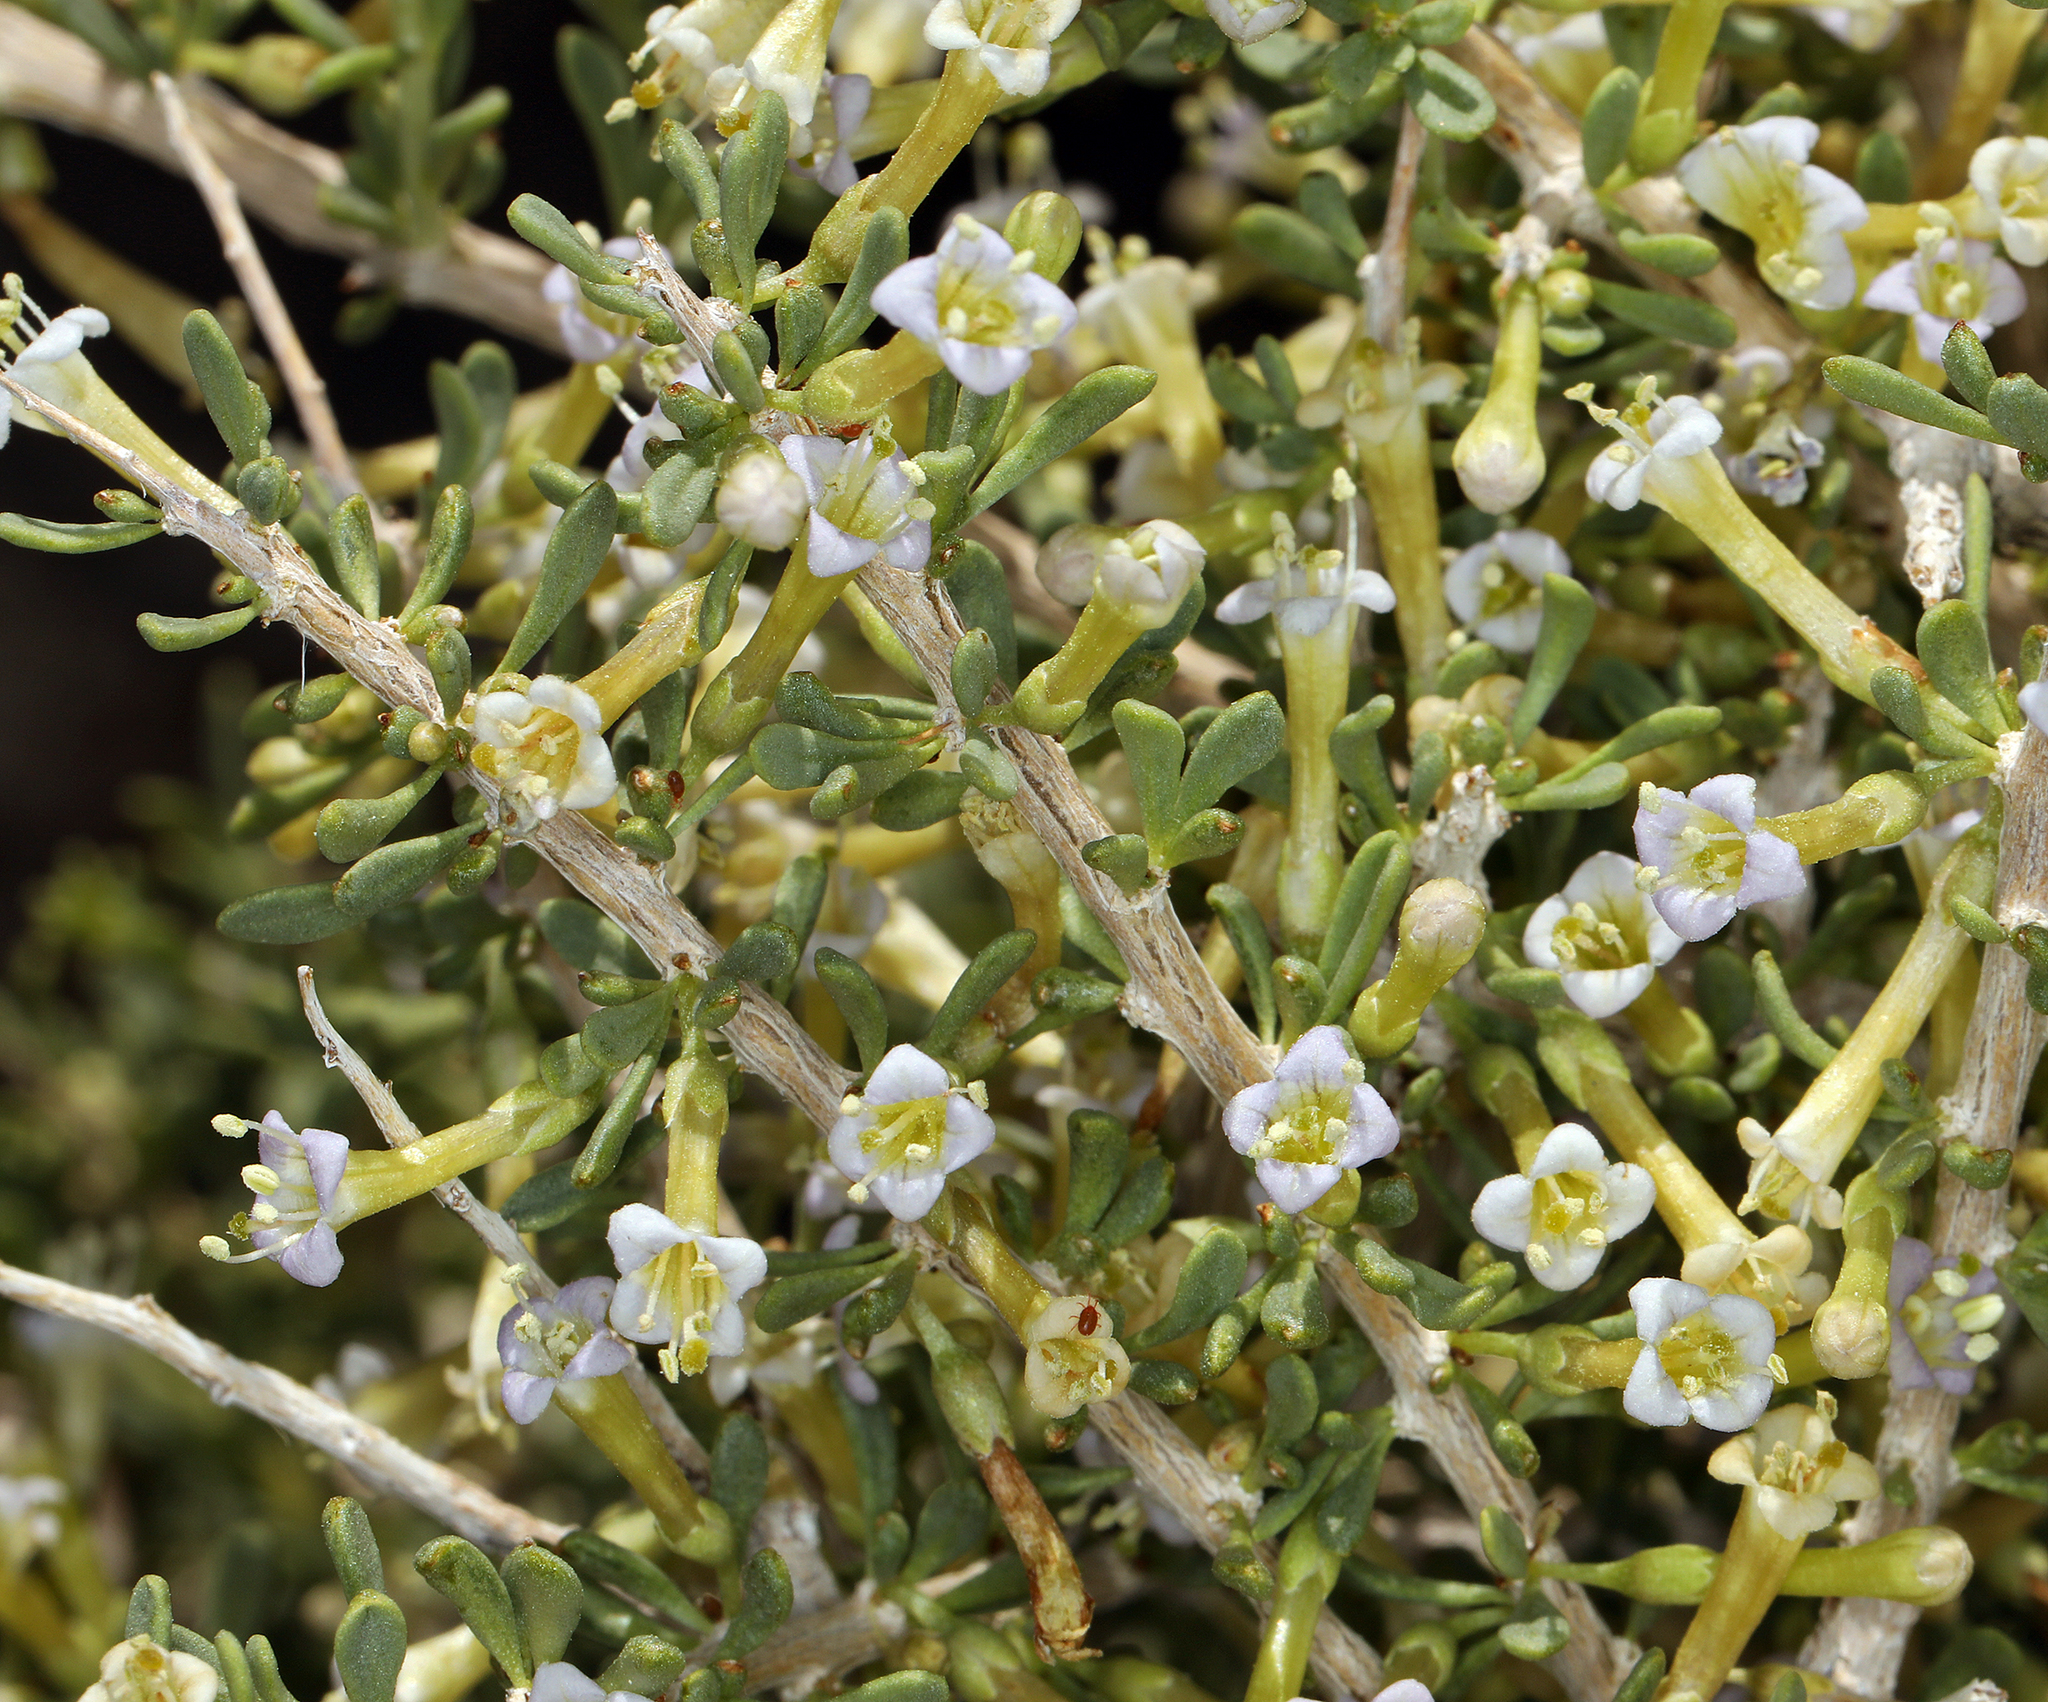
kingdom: Plantae
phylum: Tracheophyta
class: Magnoliopsida
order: Solanales
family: Solanaceae
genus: Lycium
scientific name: Lycium andersonii
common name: Water-jacket
